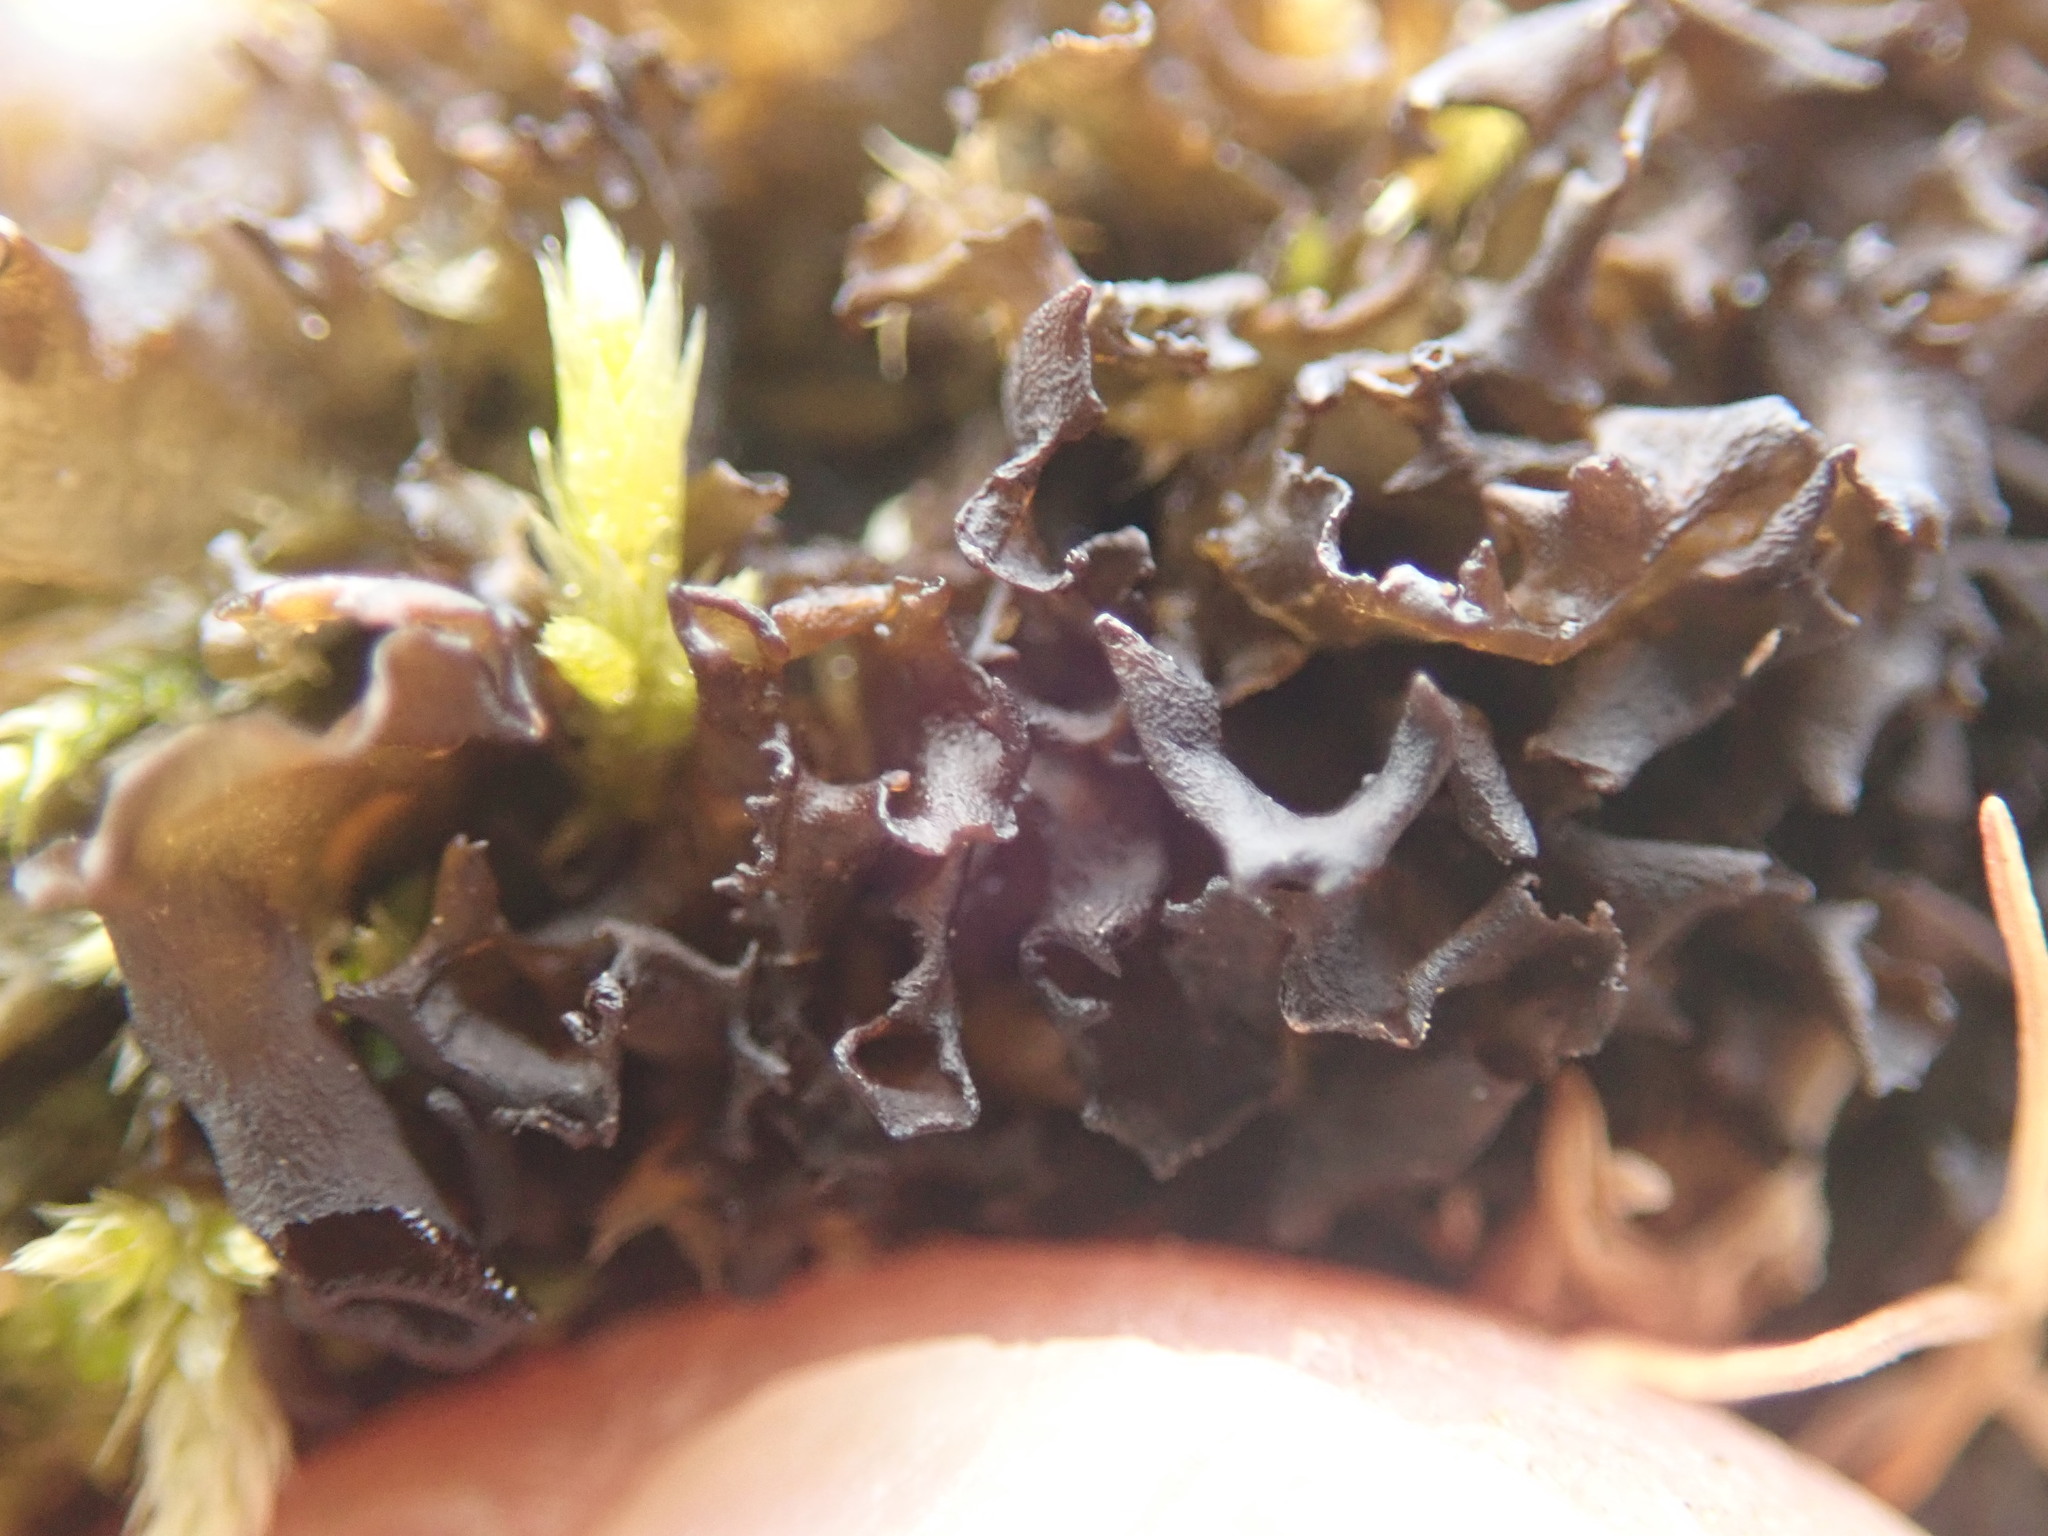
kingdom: Fungi
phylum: Ascomycota
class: Lecanoromycetes
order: Peltigerales
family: Collemataceae
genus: Scytinium
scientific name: Scytinium palmatum
